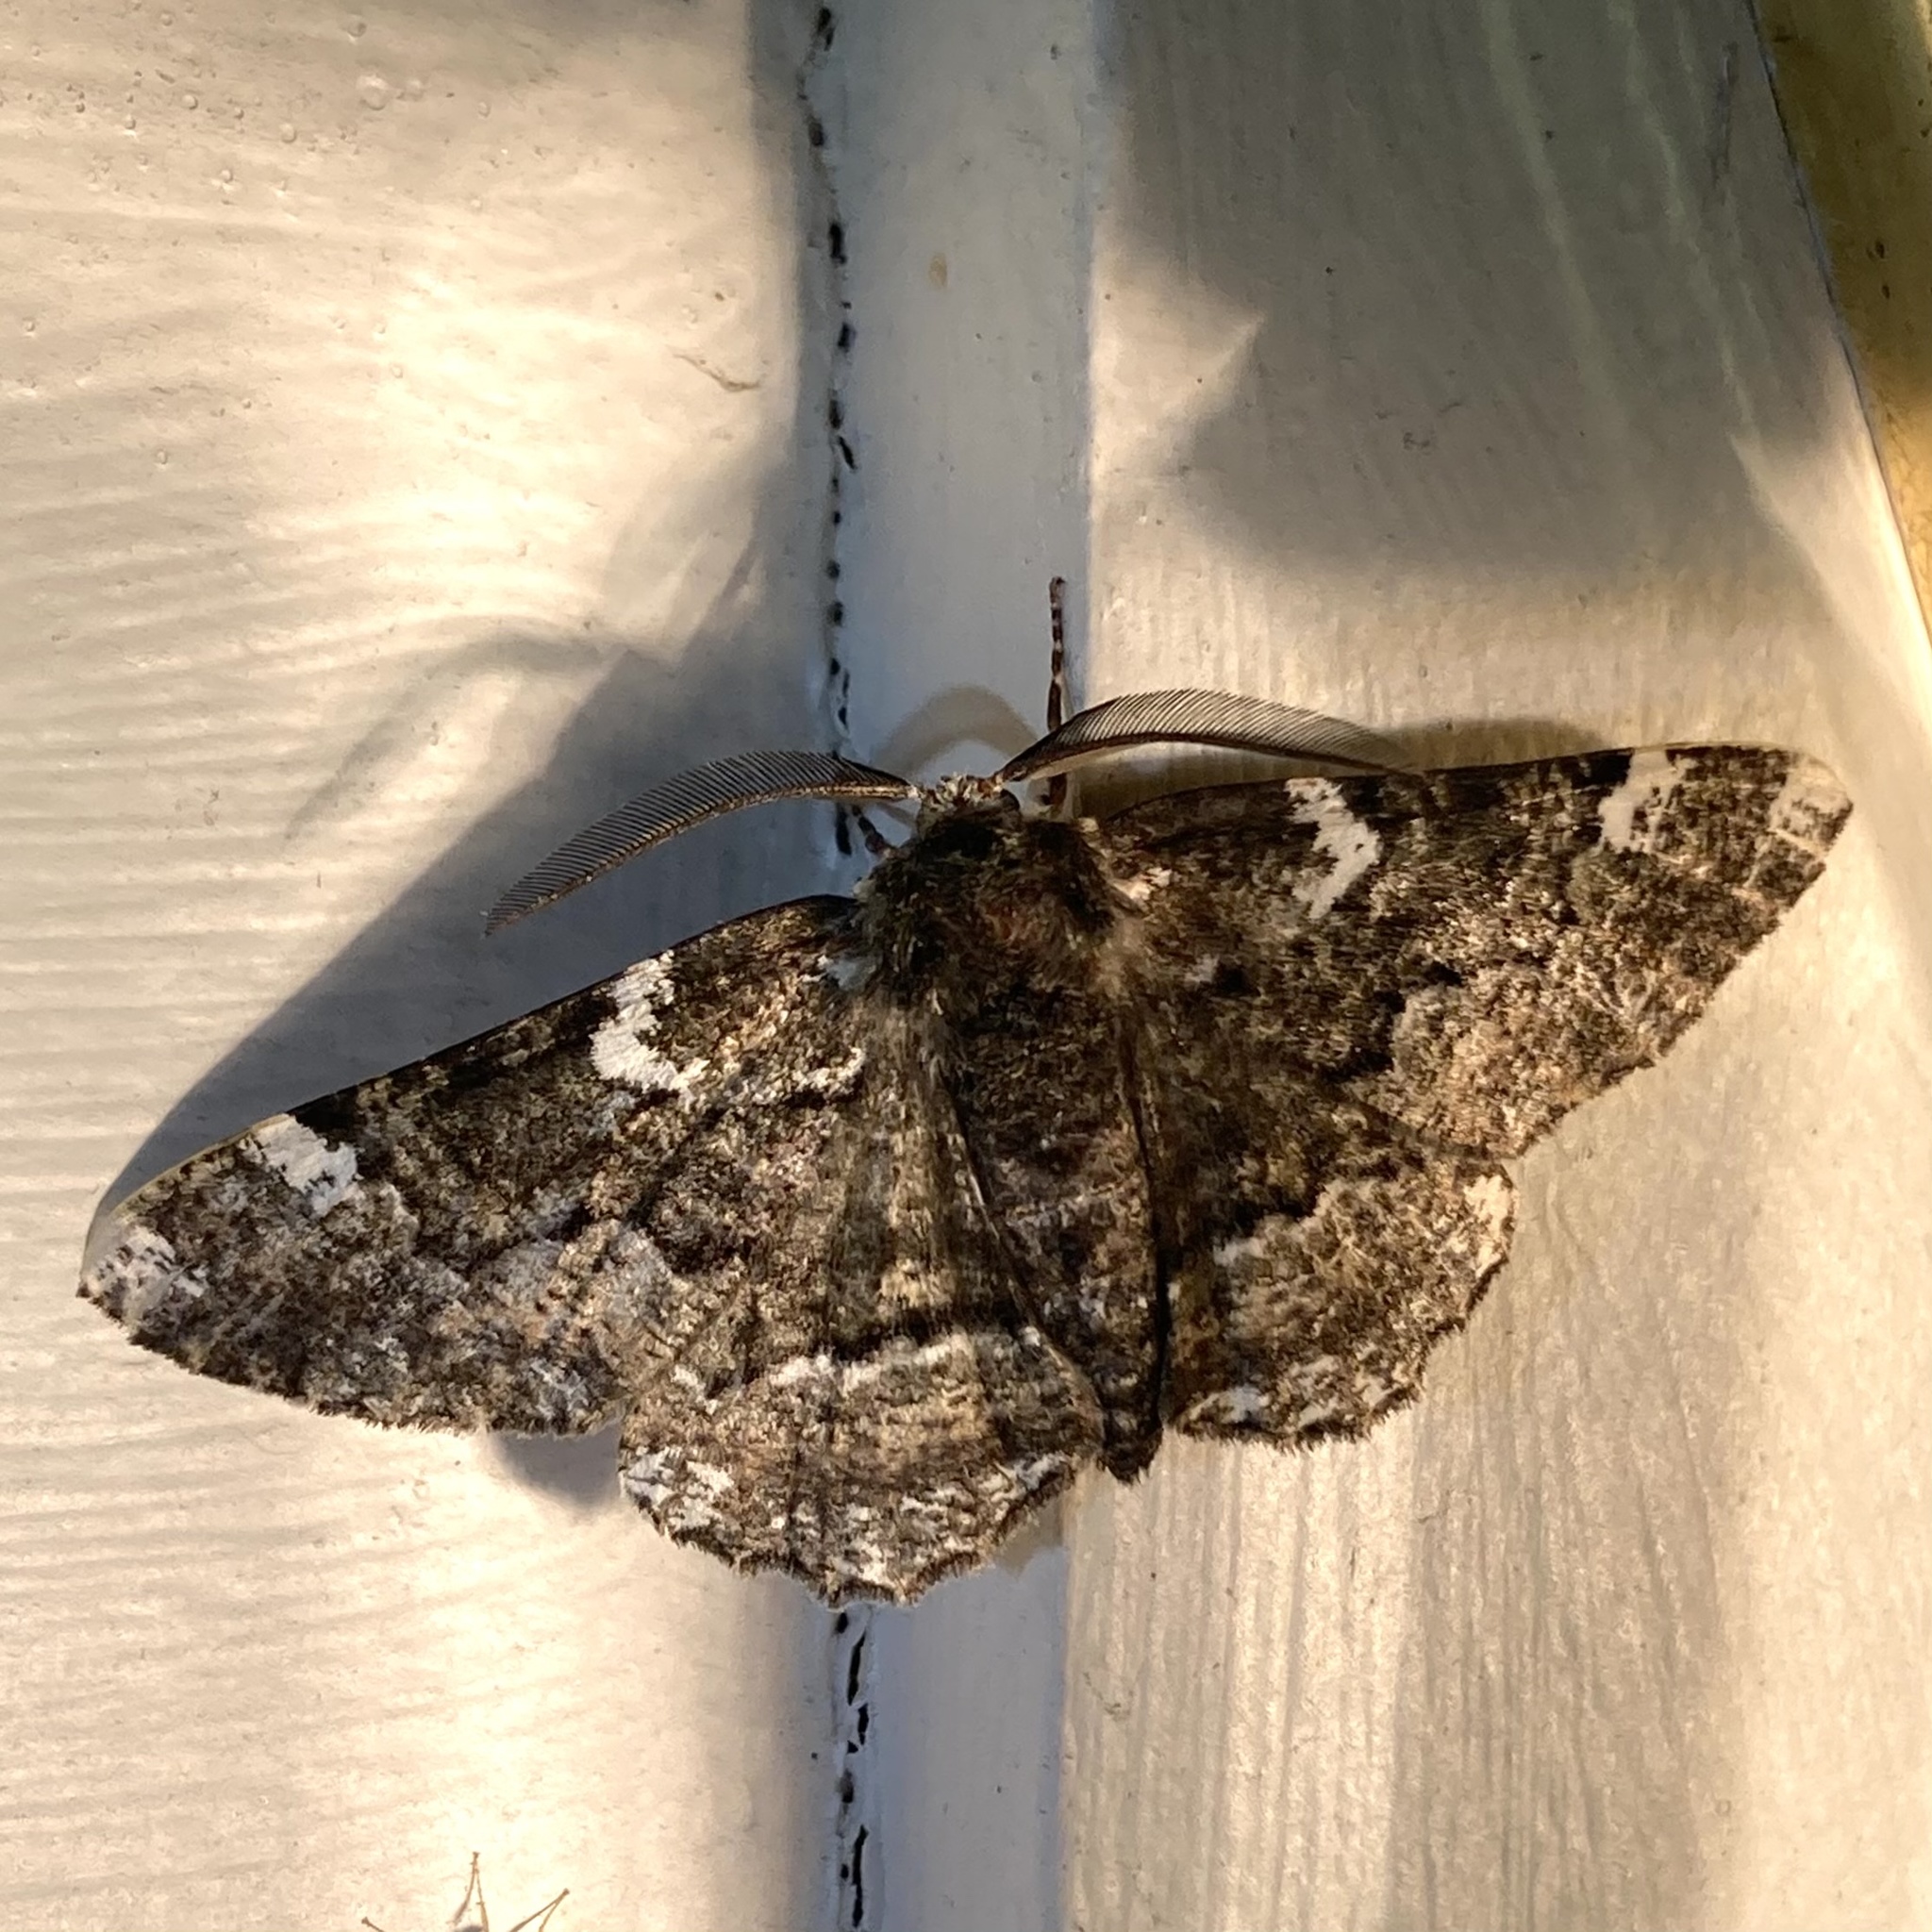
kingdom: Animalia
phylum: Arthropoda
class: Insecta
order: Lepidoptera
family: Geometridae
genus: Phaeoura
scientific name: Phaeoura quernaria
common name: Oak beauty
